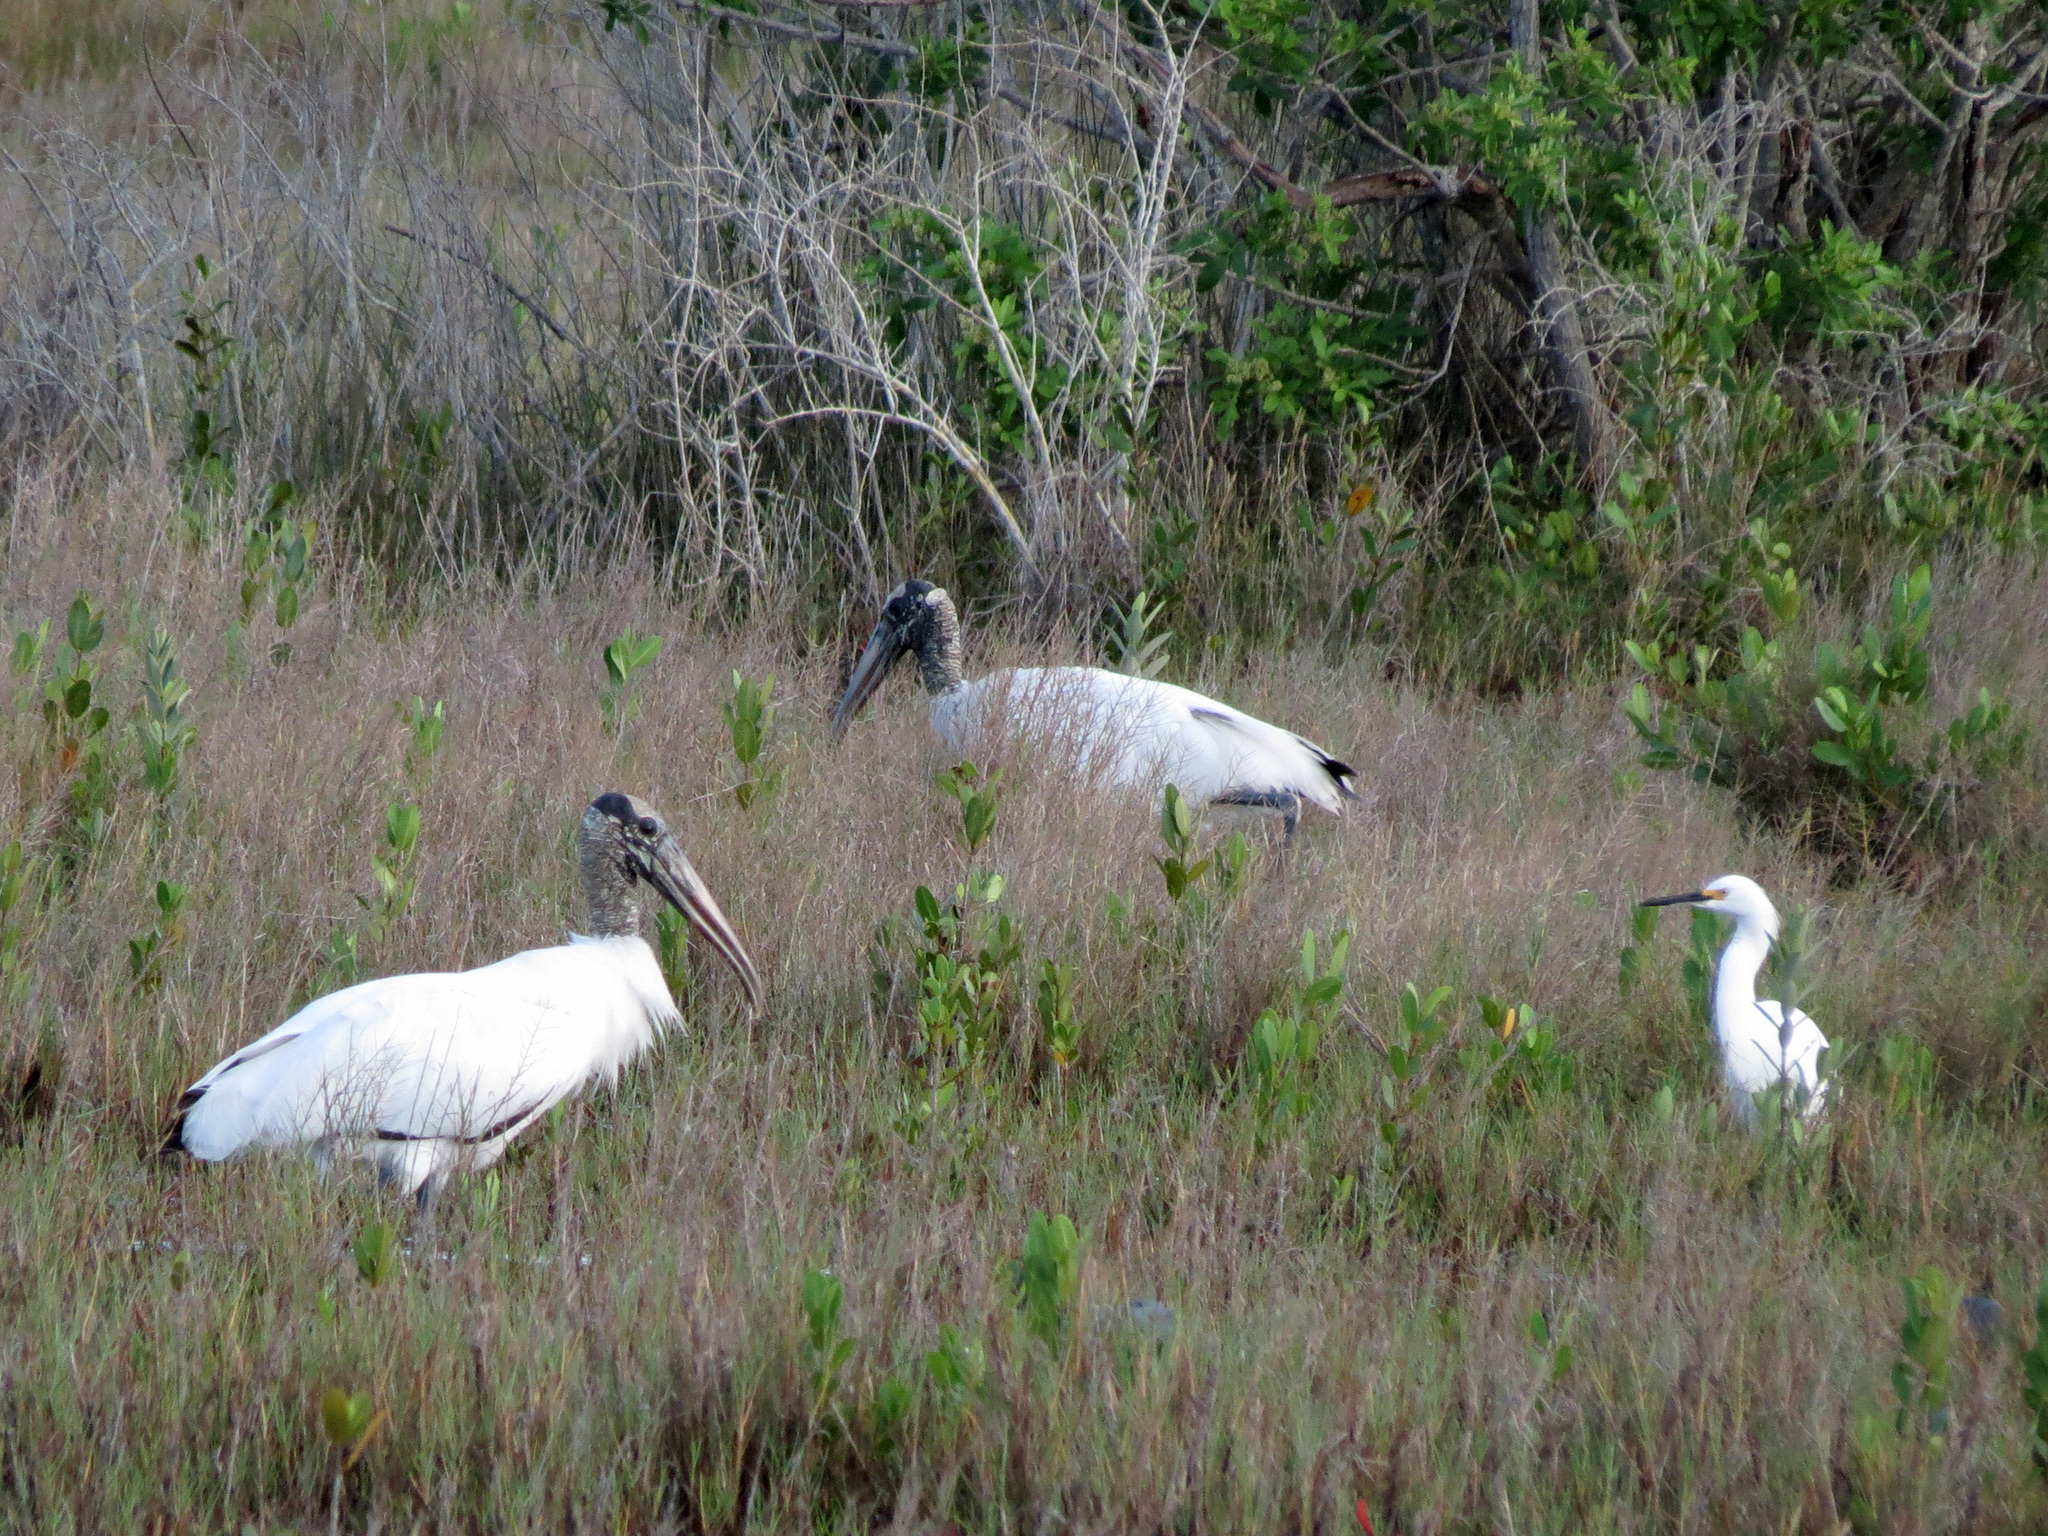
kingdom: Animalia
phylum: Chordata
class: Aves
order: Ciconiiformes
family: Ciconiidae
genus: Mycteria
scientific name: Mycteria americana
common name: Wood stork
